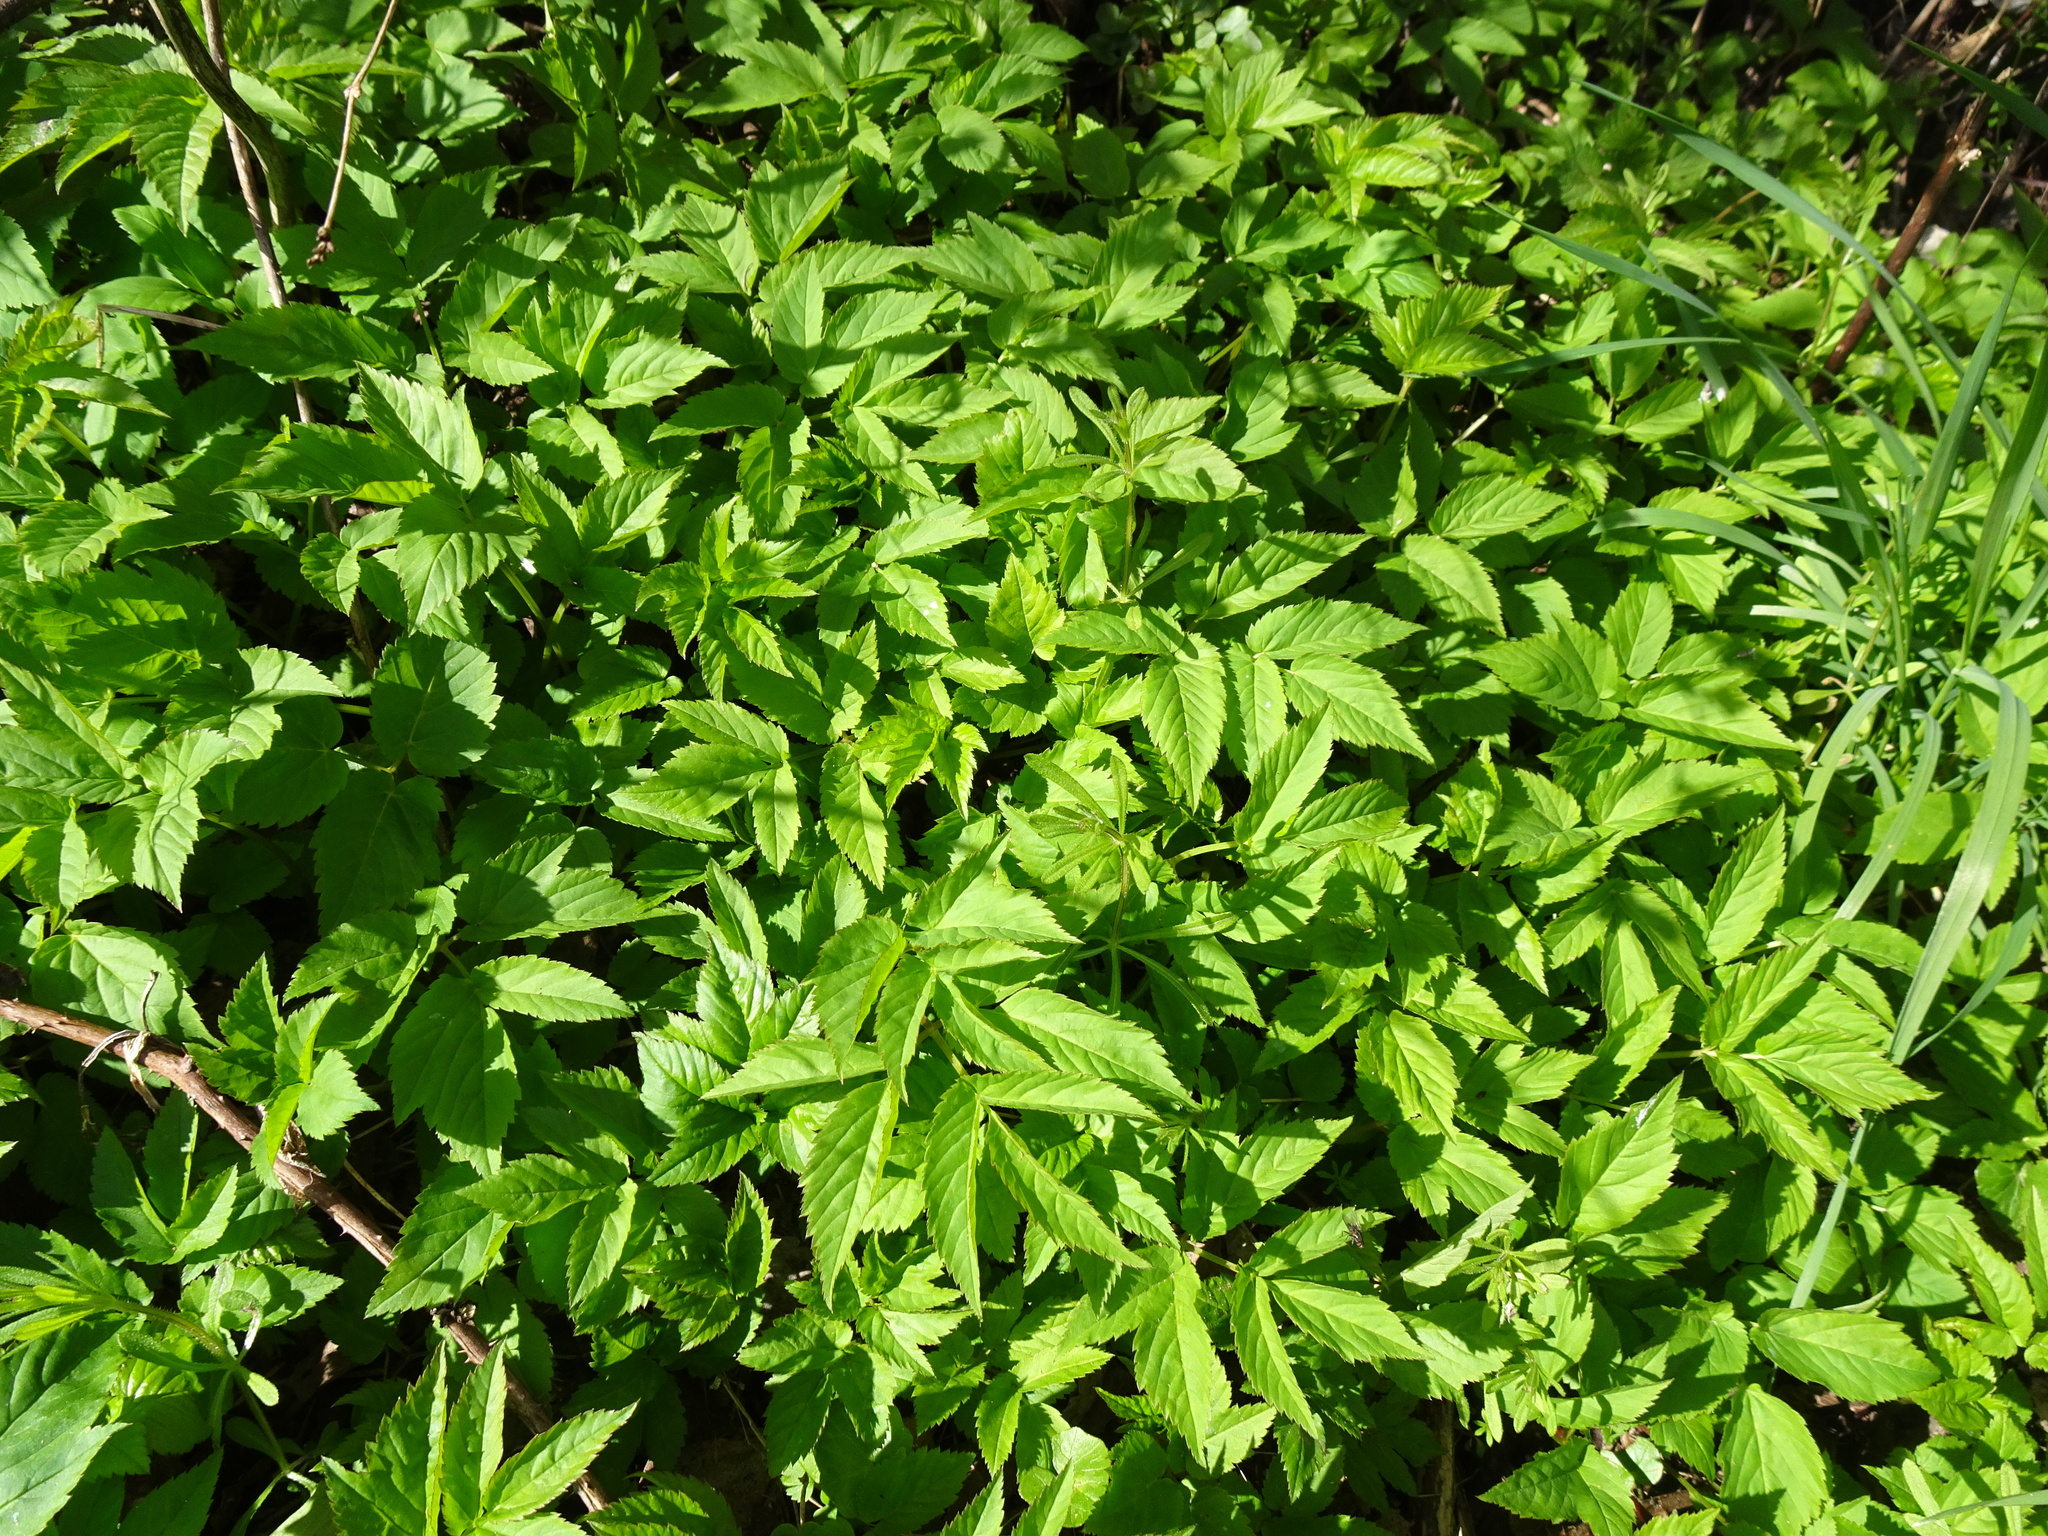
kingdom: Plantae
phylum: Tracheophyta
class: Magnoliopsida
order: Apiales
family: Apiaceae
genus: Aegopodium
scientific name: Aegopodium podagraria
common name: Ground-elder
